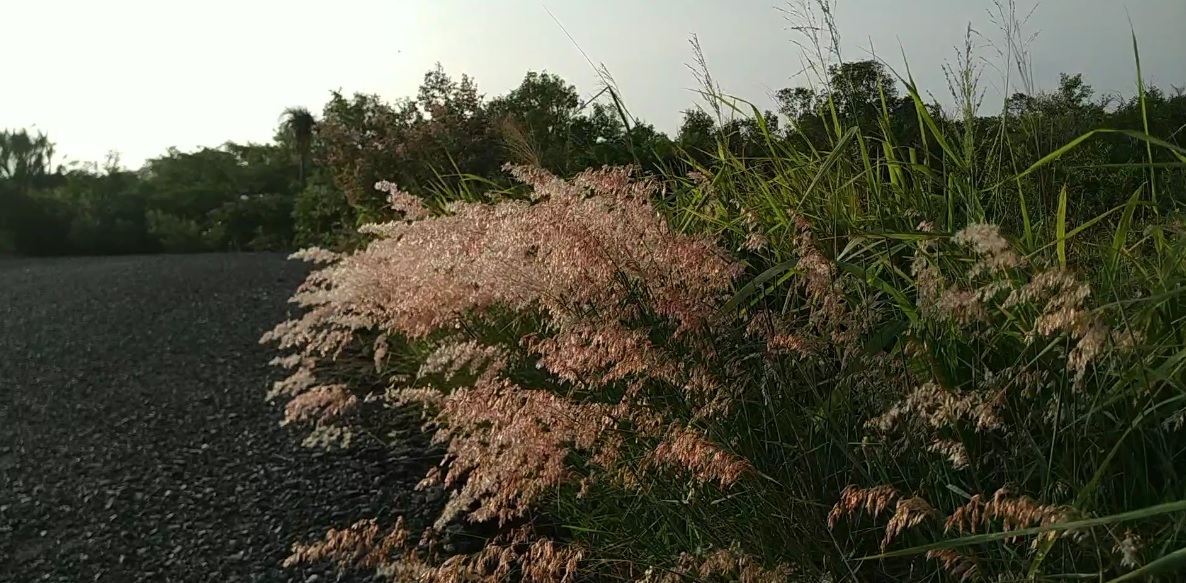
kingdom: Plantae
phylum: Tracheophyta
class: Liliopsida
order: Poales
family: Poaceae
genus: Melinis
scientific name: Melinis repens
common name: Rose natal grass
